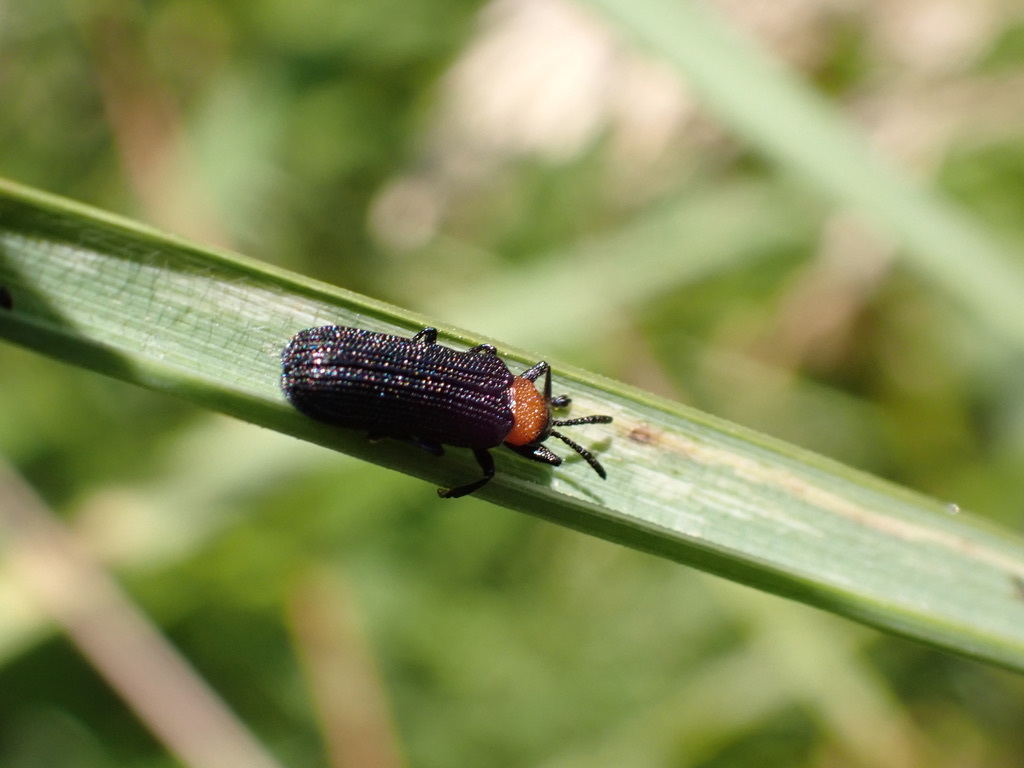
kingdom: Animalia
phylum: Arthropoda
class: Insecta
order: Coleoptera
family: Chrysomelidae
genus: Chalepus
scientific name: Chalepus walshii
